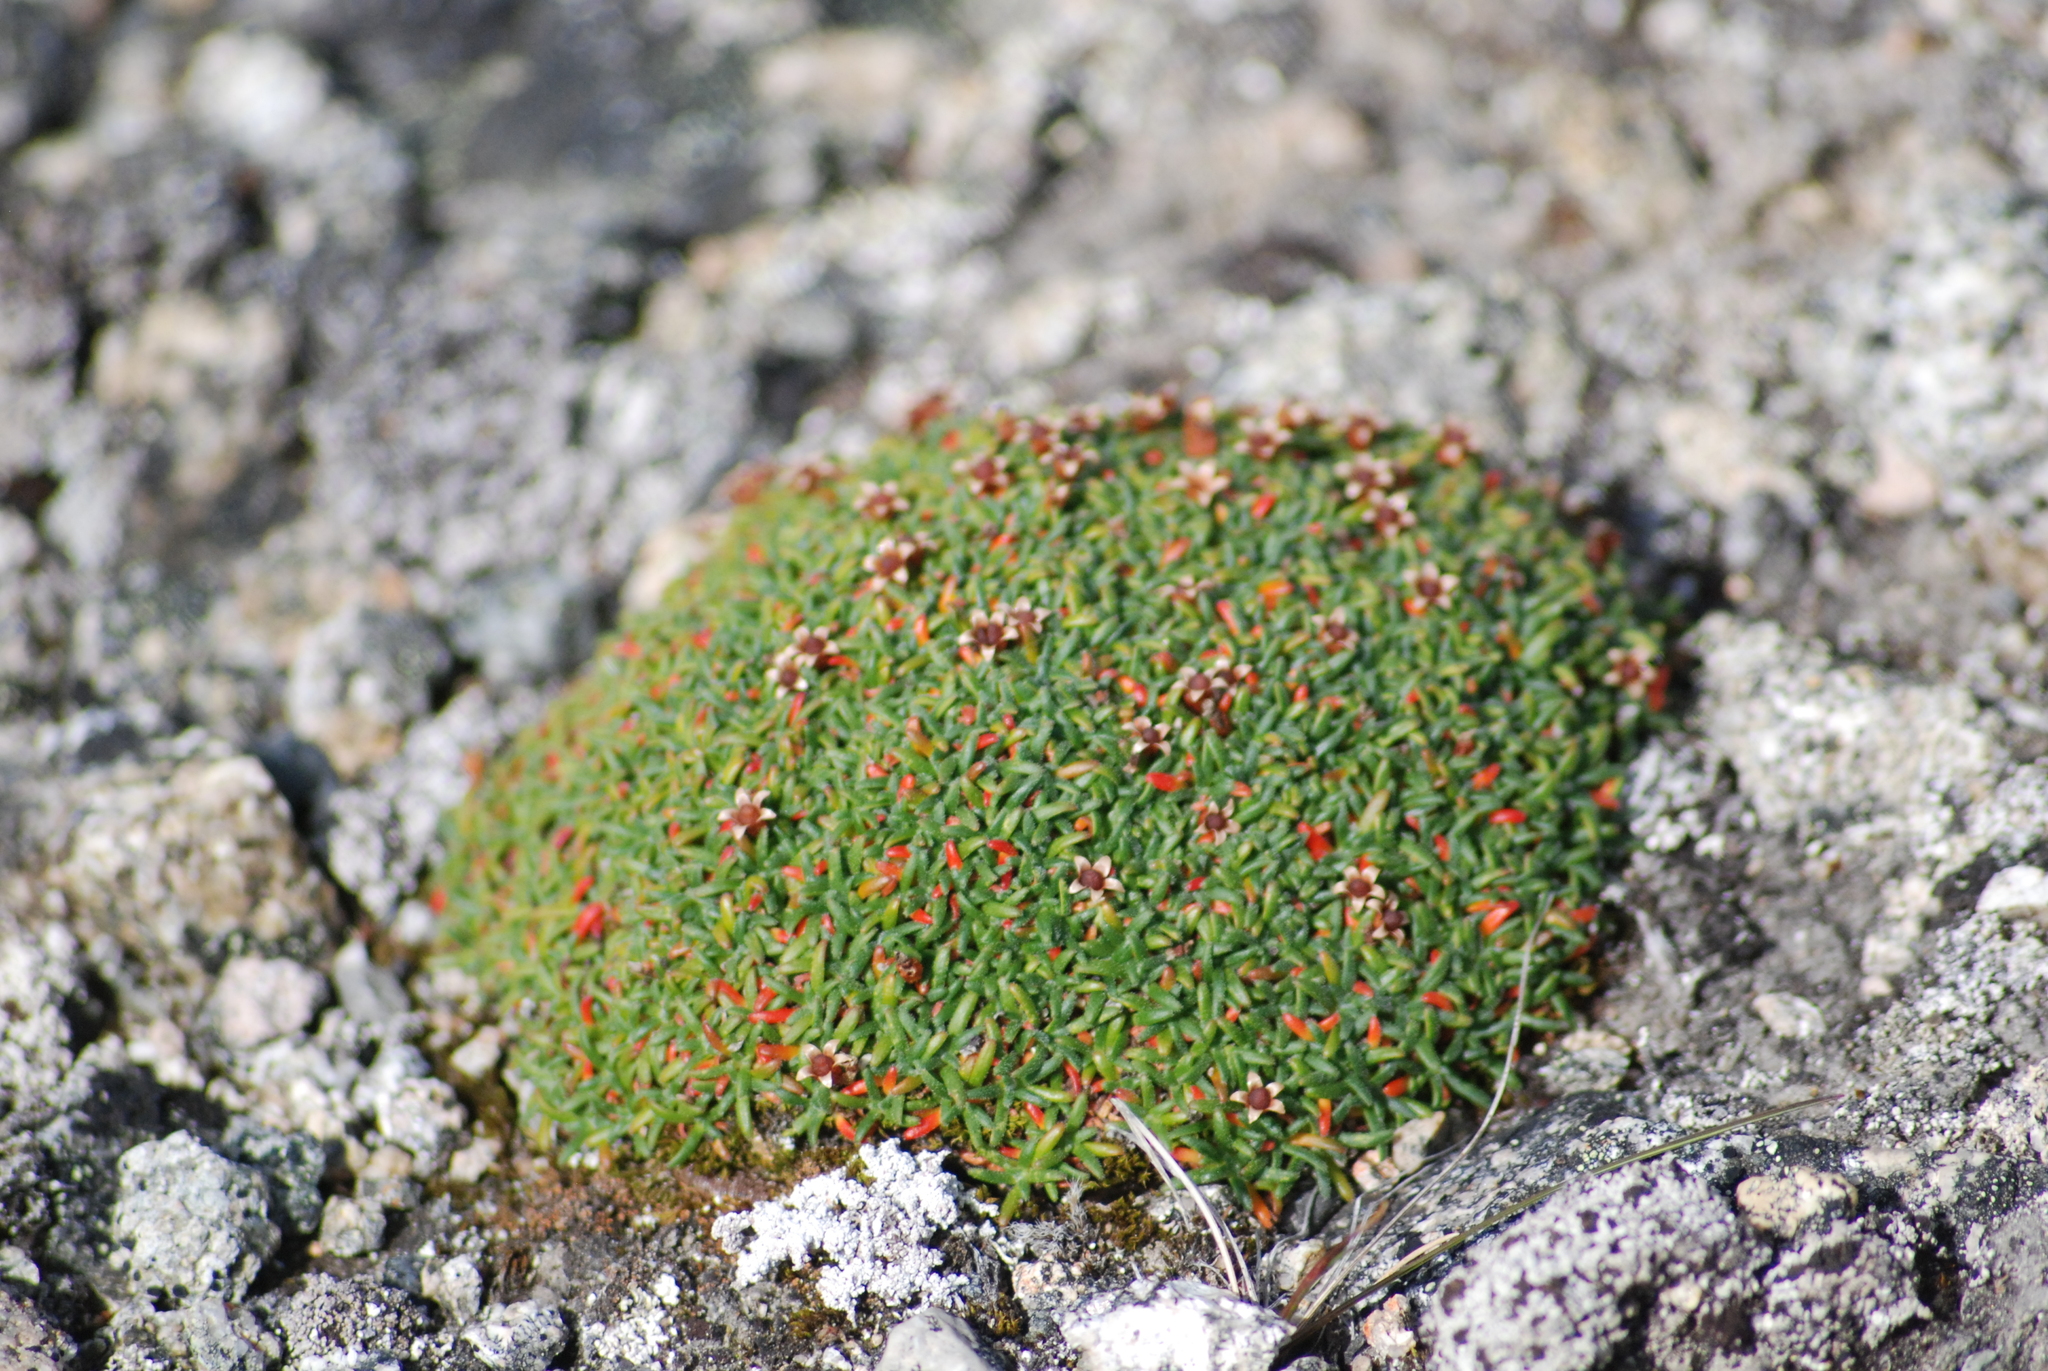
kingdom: Plantae
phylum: Tracheophyta
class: Magnoliopsida
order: Ericales
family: Primulaceae
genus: Androsace
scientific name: Androsace ochotensis
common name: Alaska dwarf-primrose
